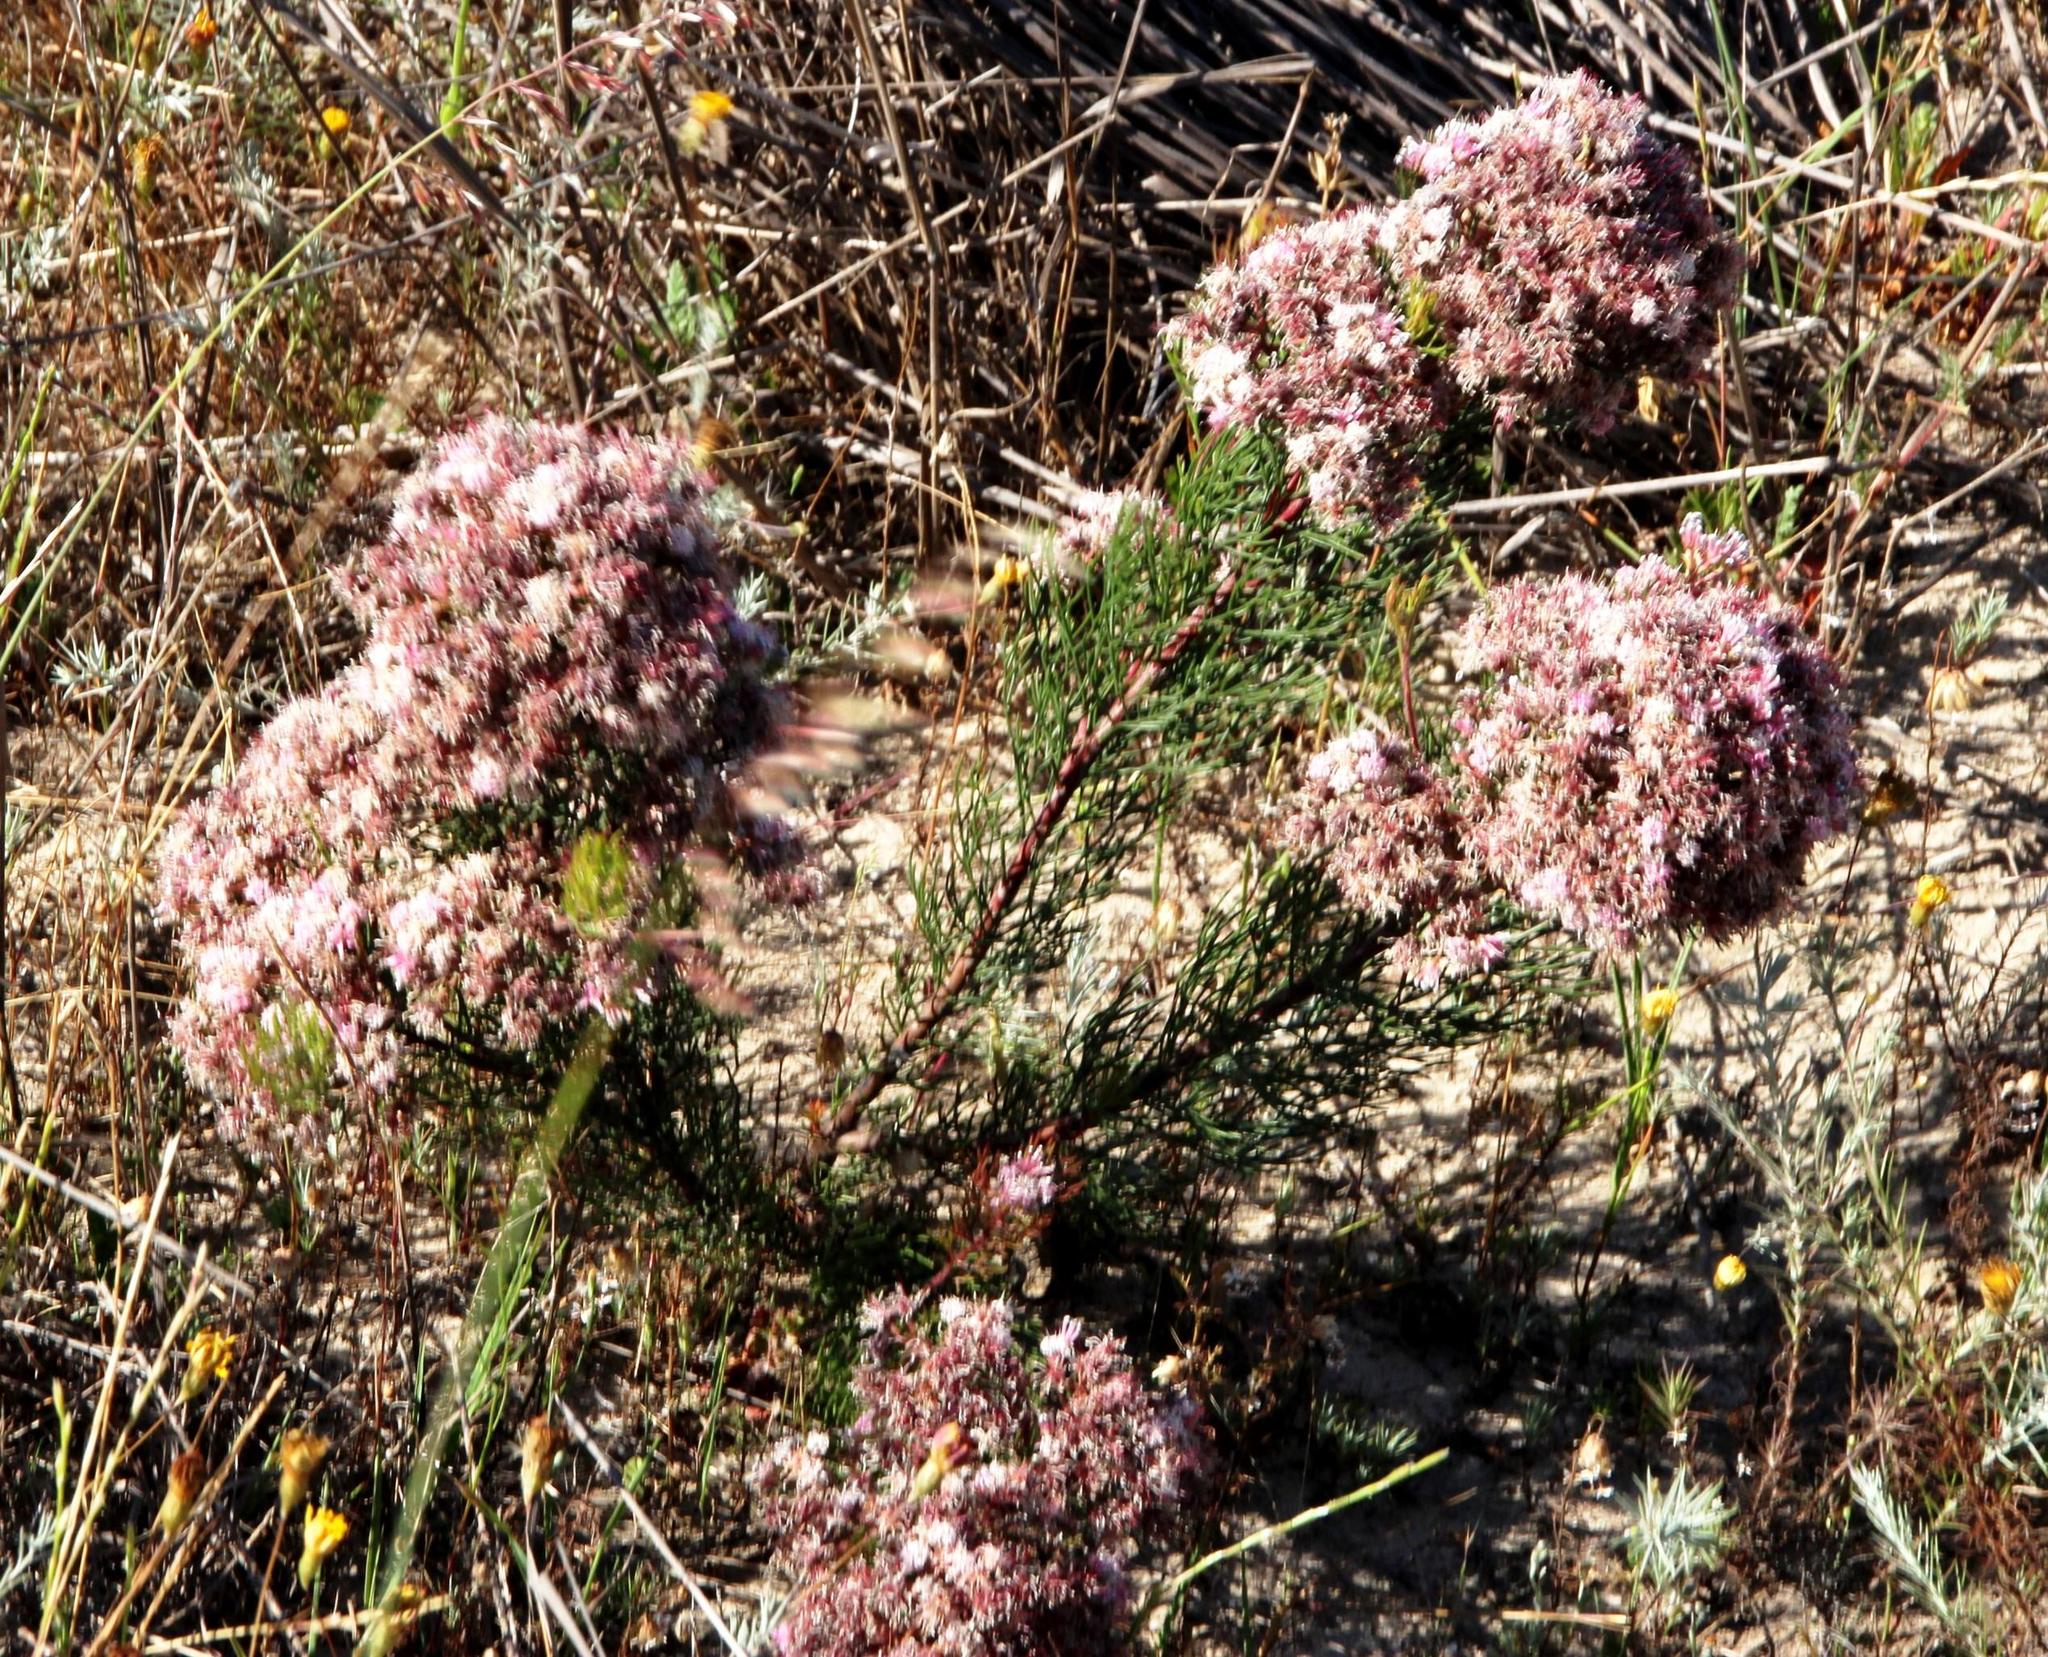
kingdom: Plantae
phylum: Tracheophyta
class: Magnoliopsida
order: Proteales
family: Proteaceae
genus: Serruria
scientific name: Serruria fasciflora
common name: Common pin spiderhead
